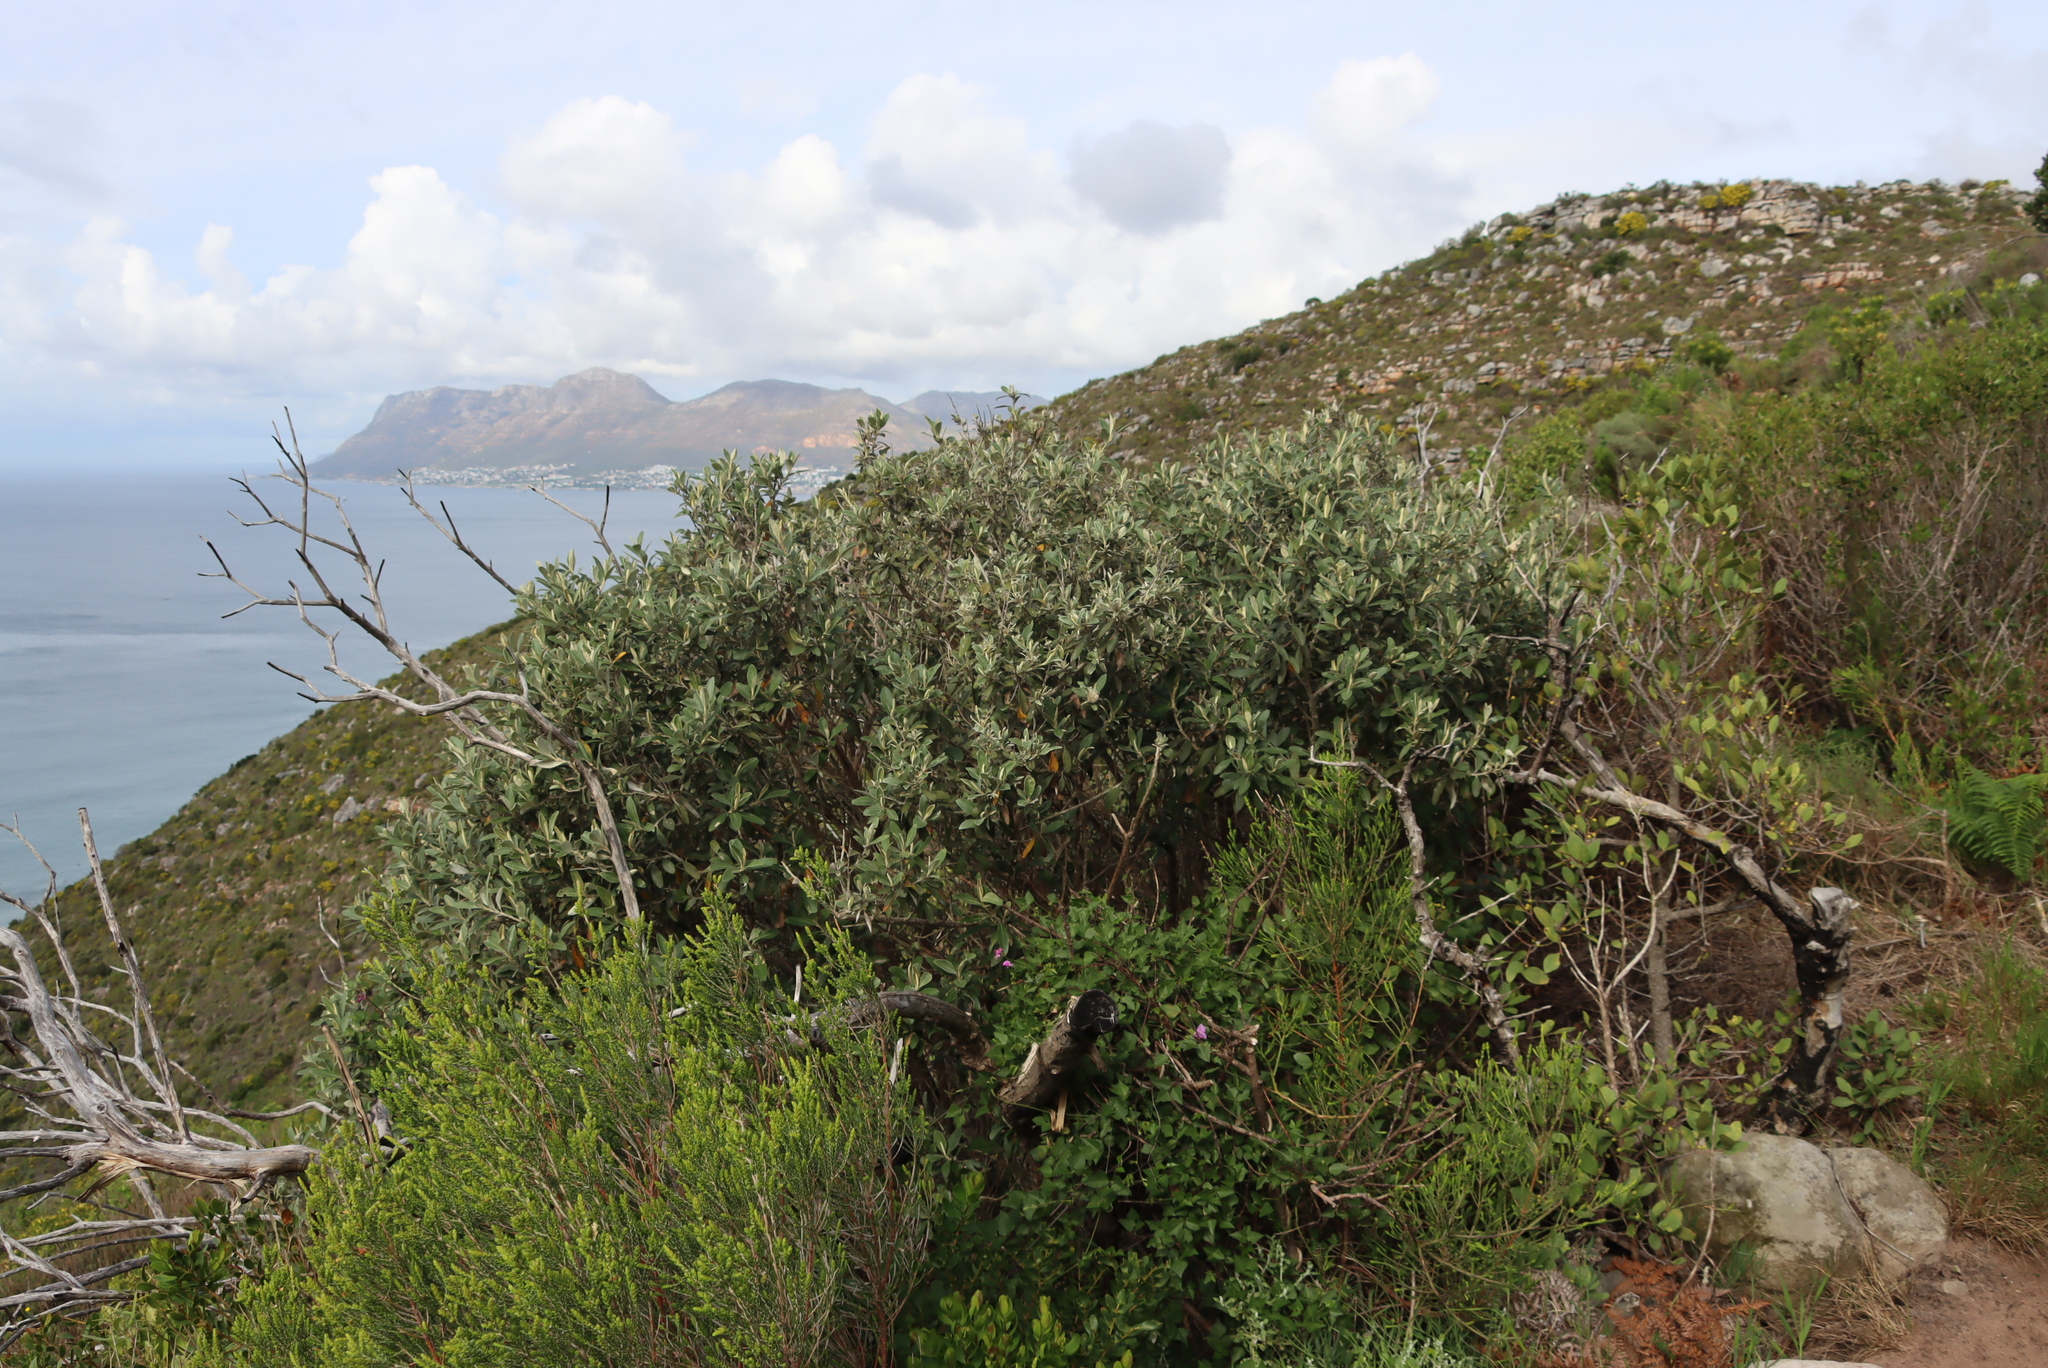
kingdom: Plantae
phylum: Tracheophyta
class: Magnoliopsida
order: Asterales
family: Asteraceae
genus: Tarchonanthus
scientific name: Tarchonanthus littoralis
